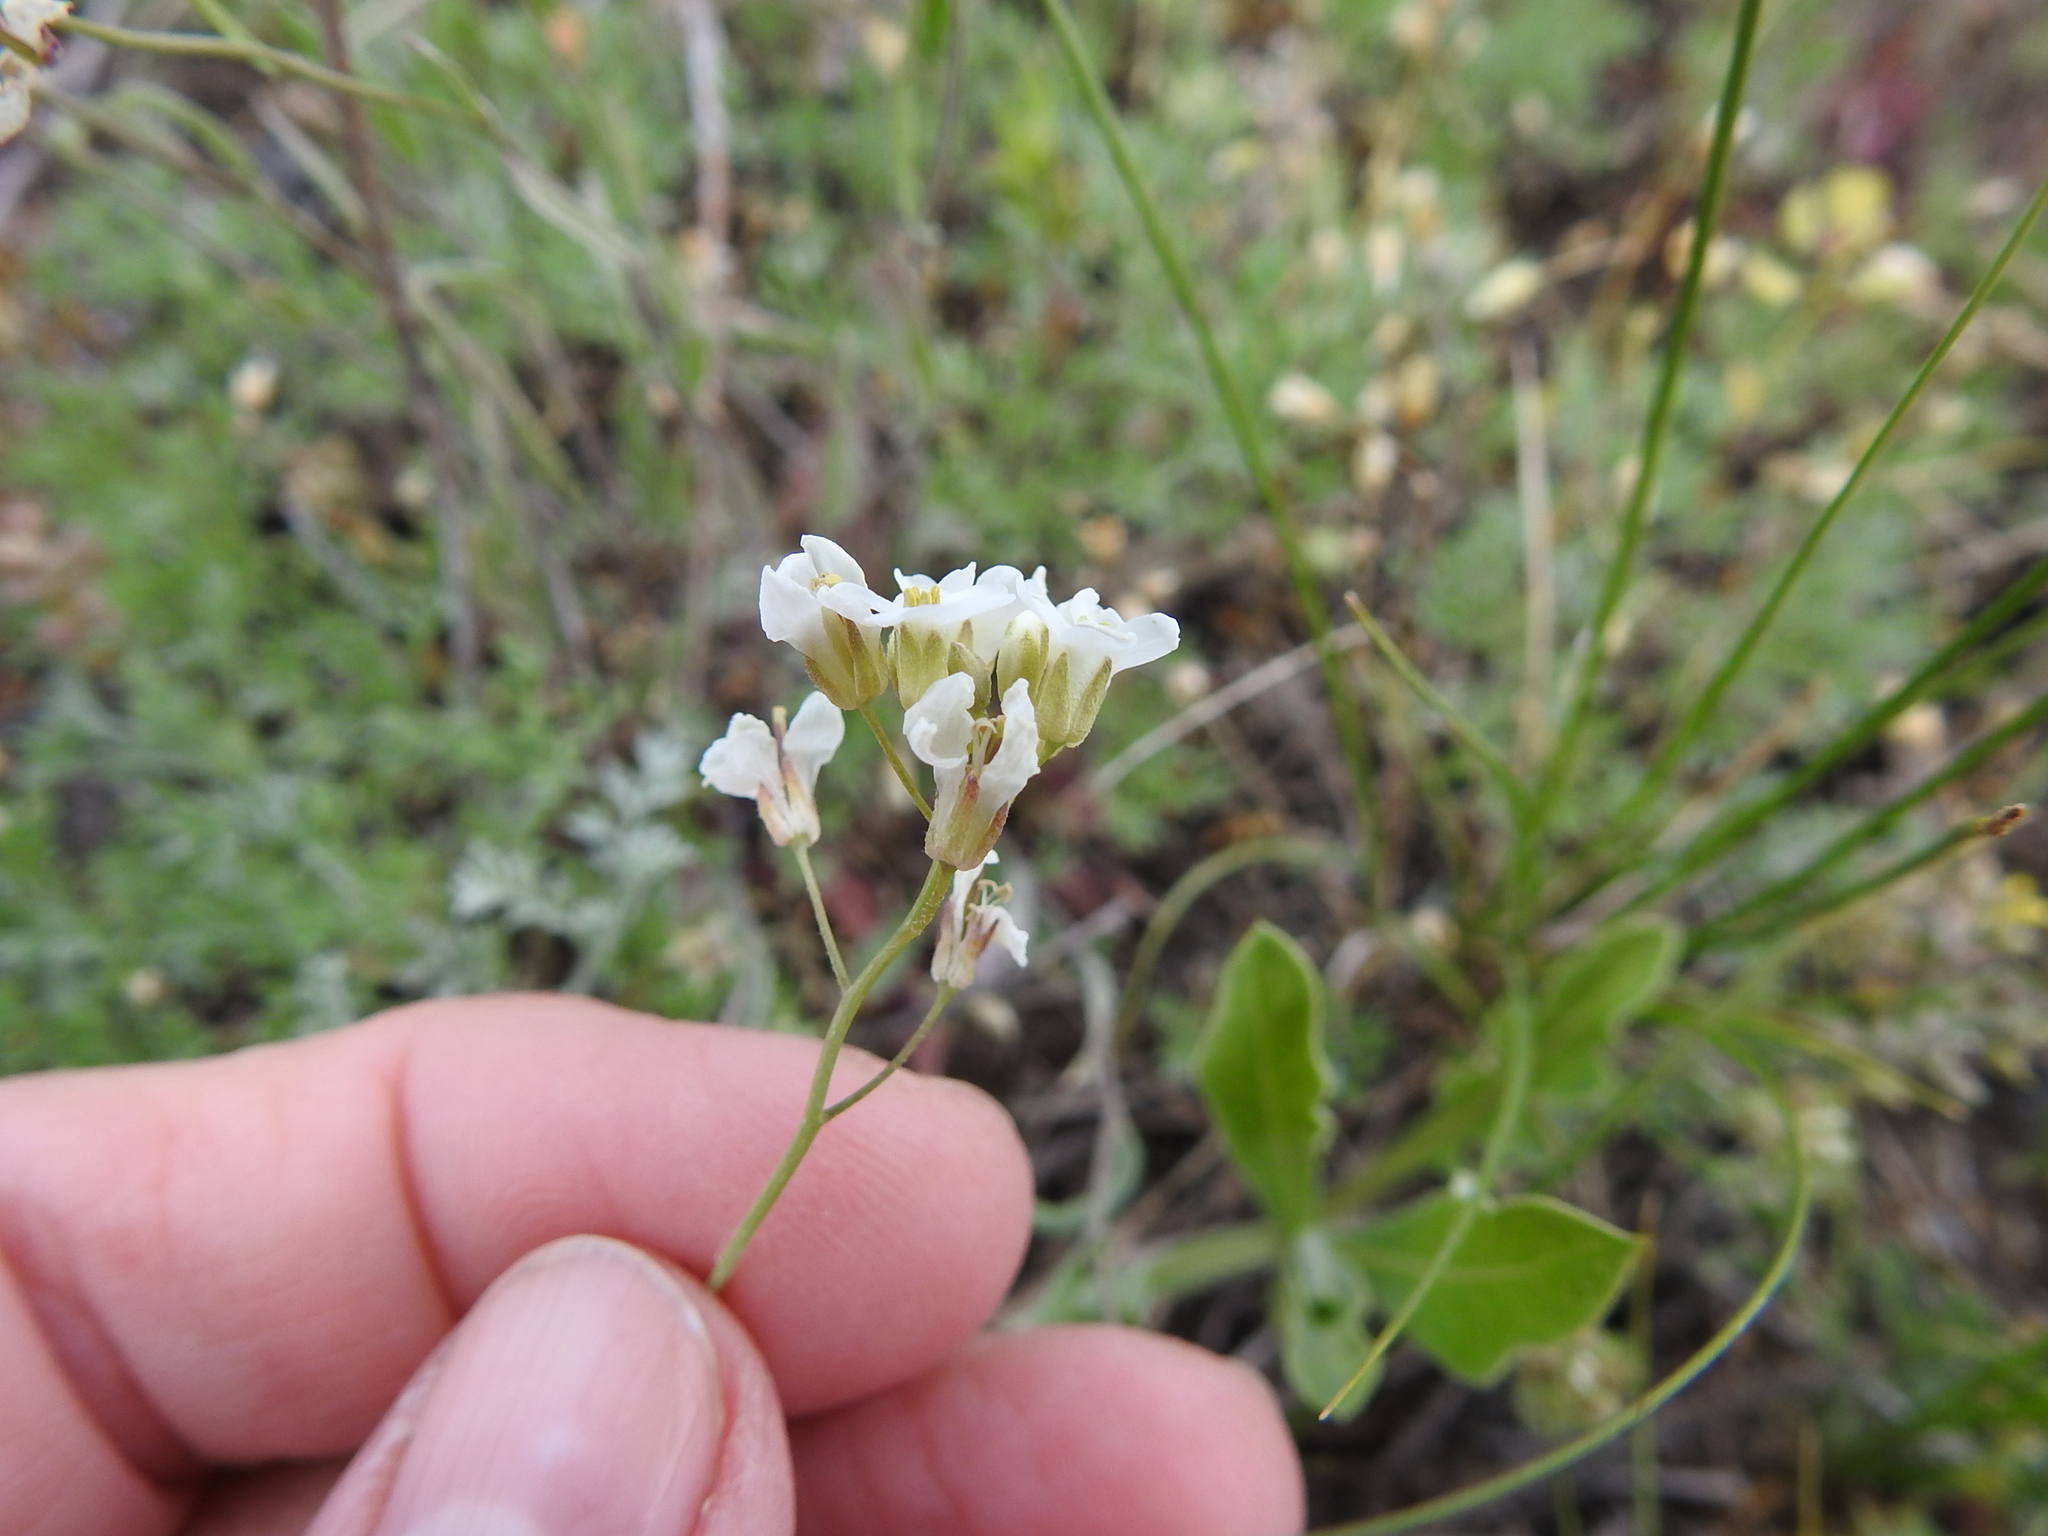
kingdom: Plantae
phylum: Tracheophyta
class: Magnoliopsida
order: Brassicales
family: Brassicaceae
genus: Capsella
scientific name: Capsella bursa-pastoris
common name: Shepherd's purse
